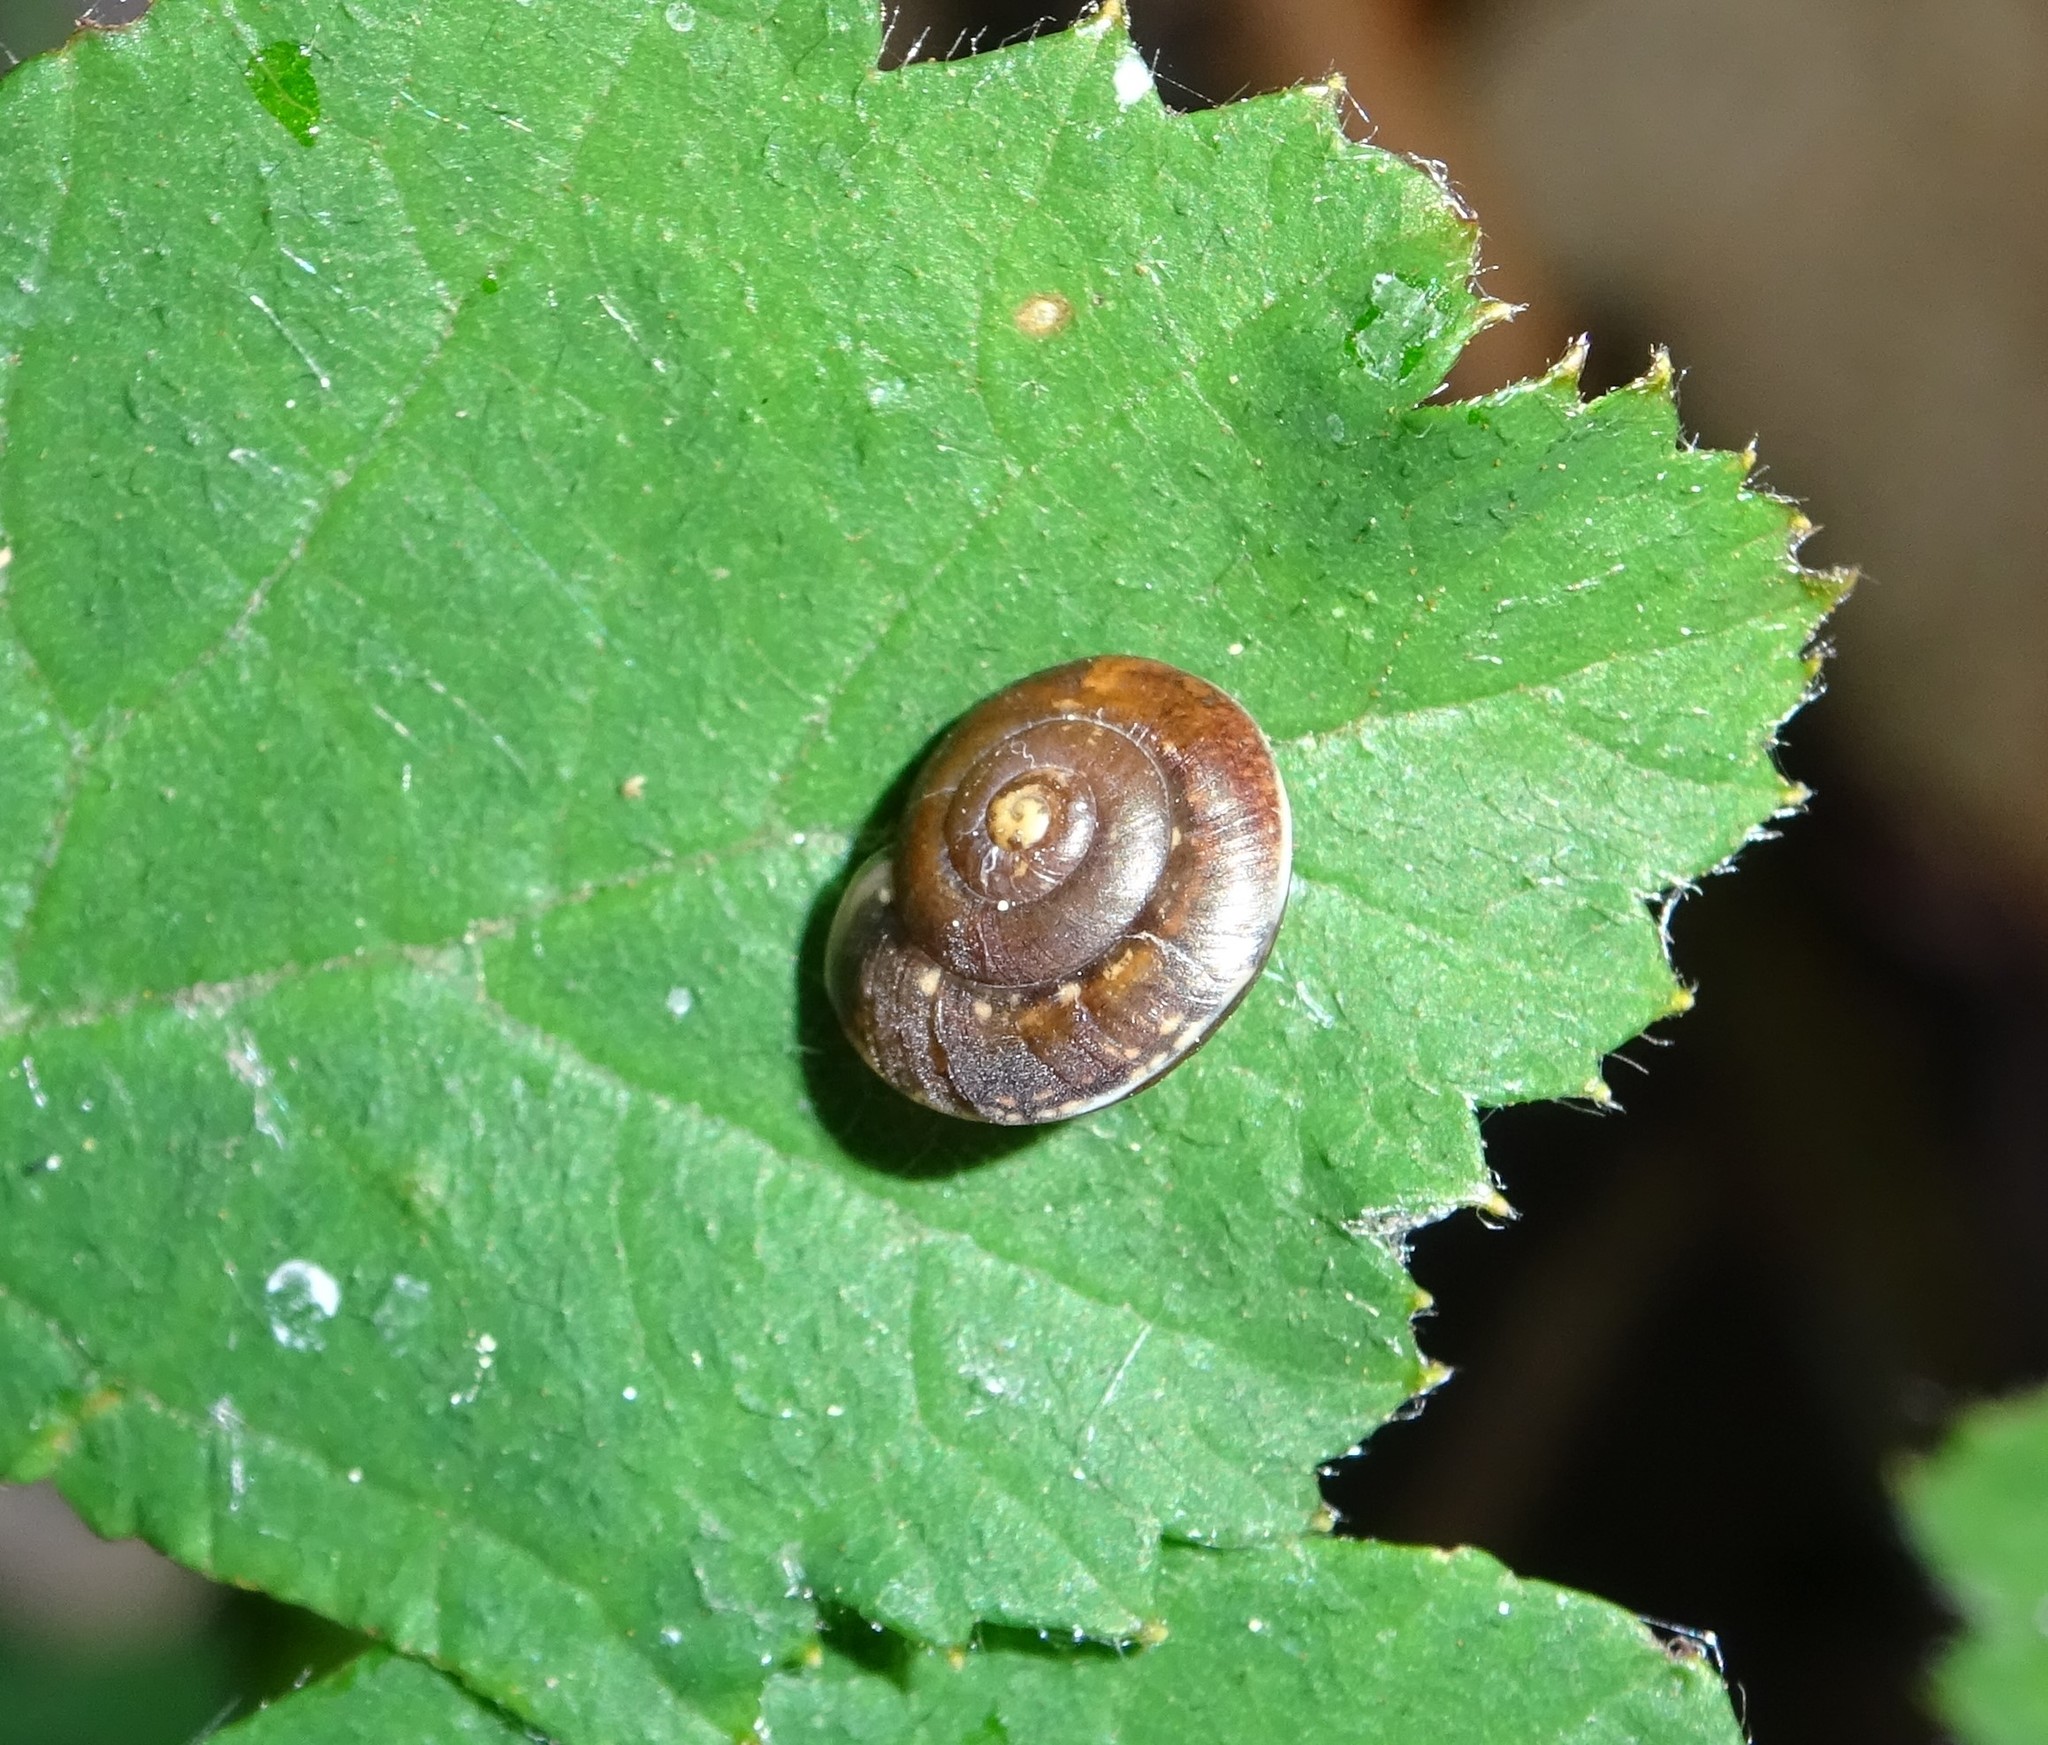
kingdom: Animalia
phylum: Mollusca
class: Gastropoda
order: Stylommatophora
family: Hygromiidae
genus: Hygromia
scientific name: Hygromia cinctella
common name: Girdled snail
